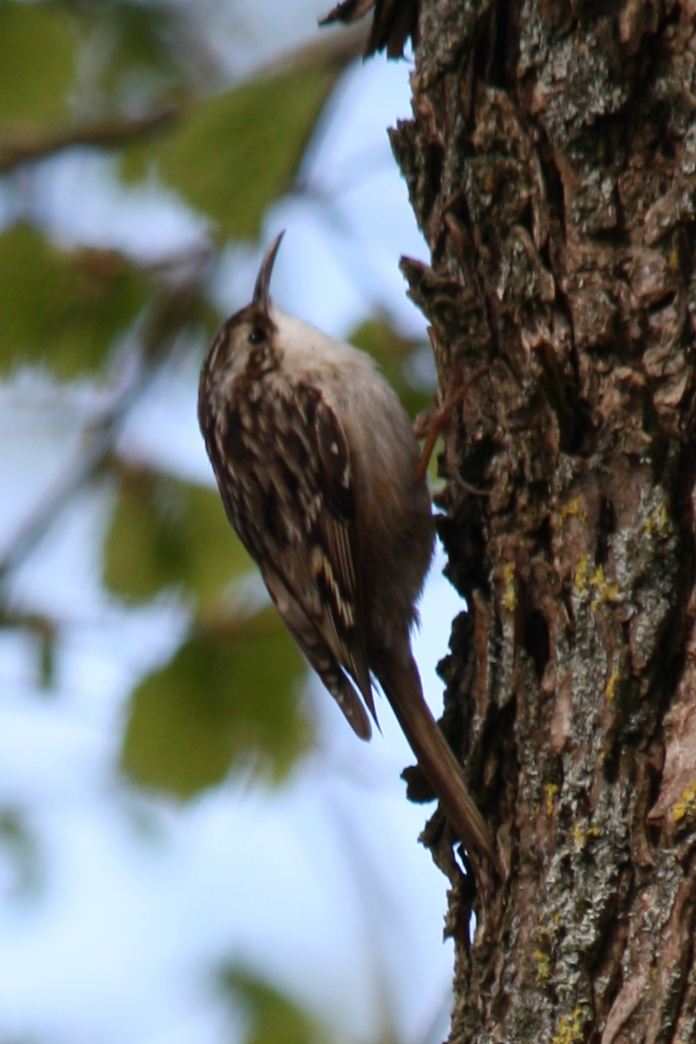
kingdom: Animalia
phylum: Chordata
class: Aves
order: Passeriformes
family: Certhiidae
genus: Certhia
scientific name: Certhia brachydactyla
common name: Short-toed treecreeper
